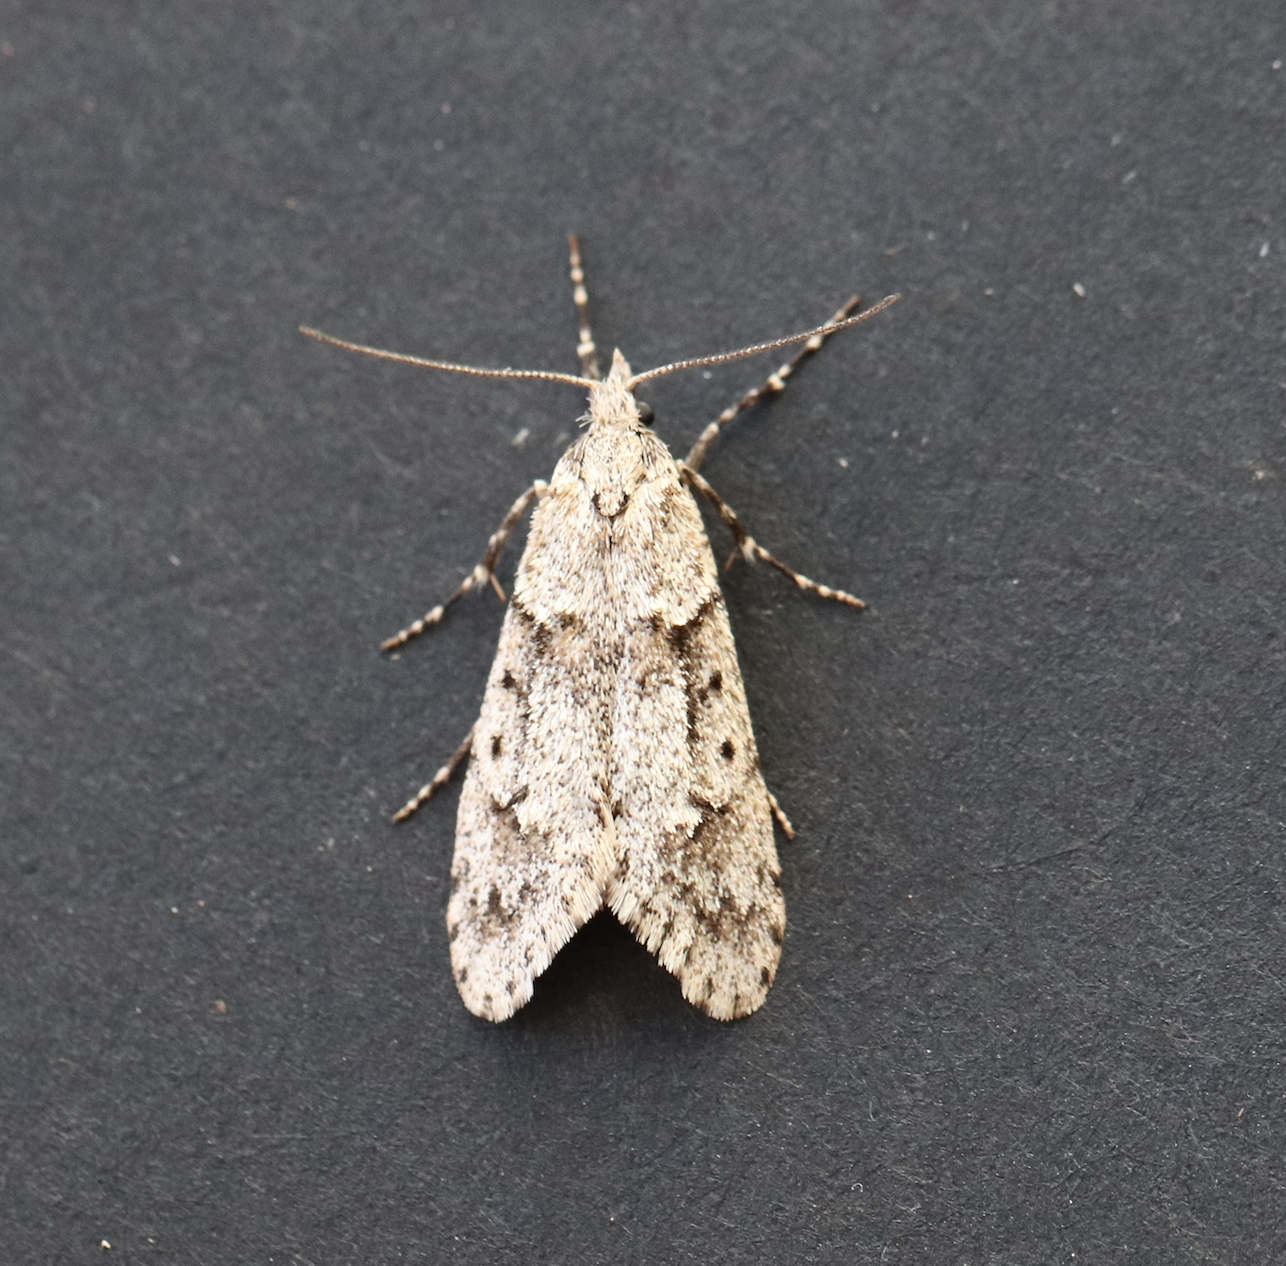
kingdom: Animalia
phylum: Arthropoda
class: Insecta
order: Lepidoptera
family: Lypusidae
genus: Diurnea
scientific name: Diurnea fagella
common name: March tubic
